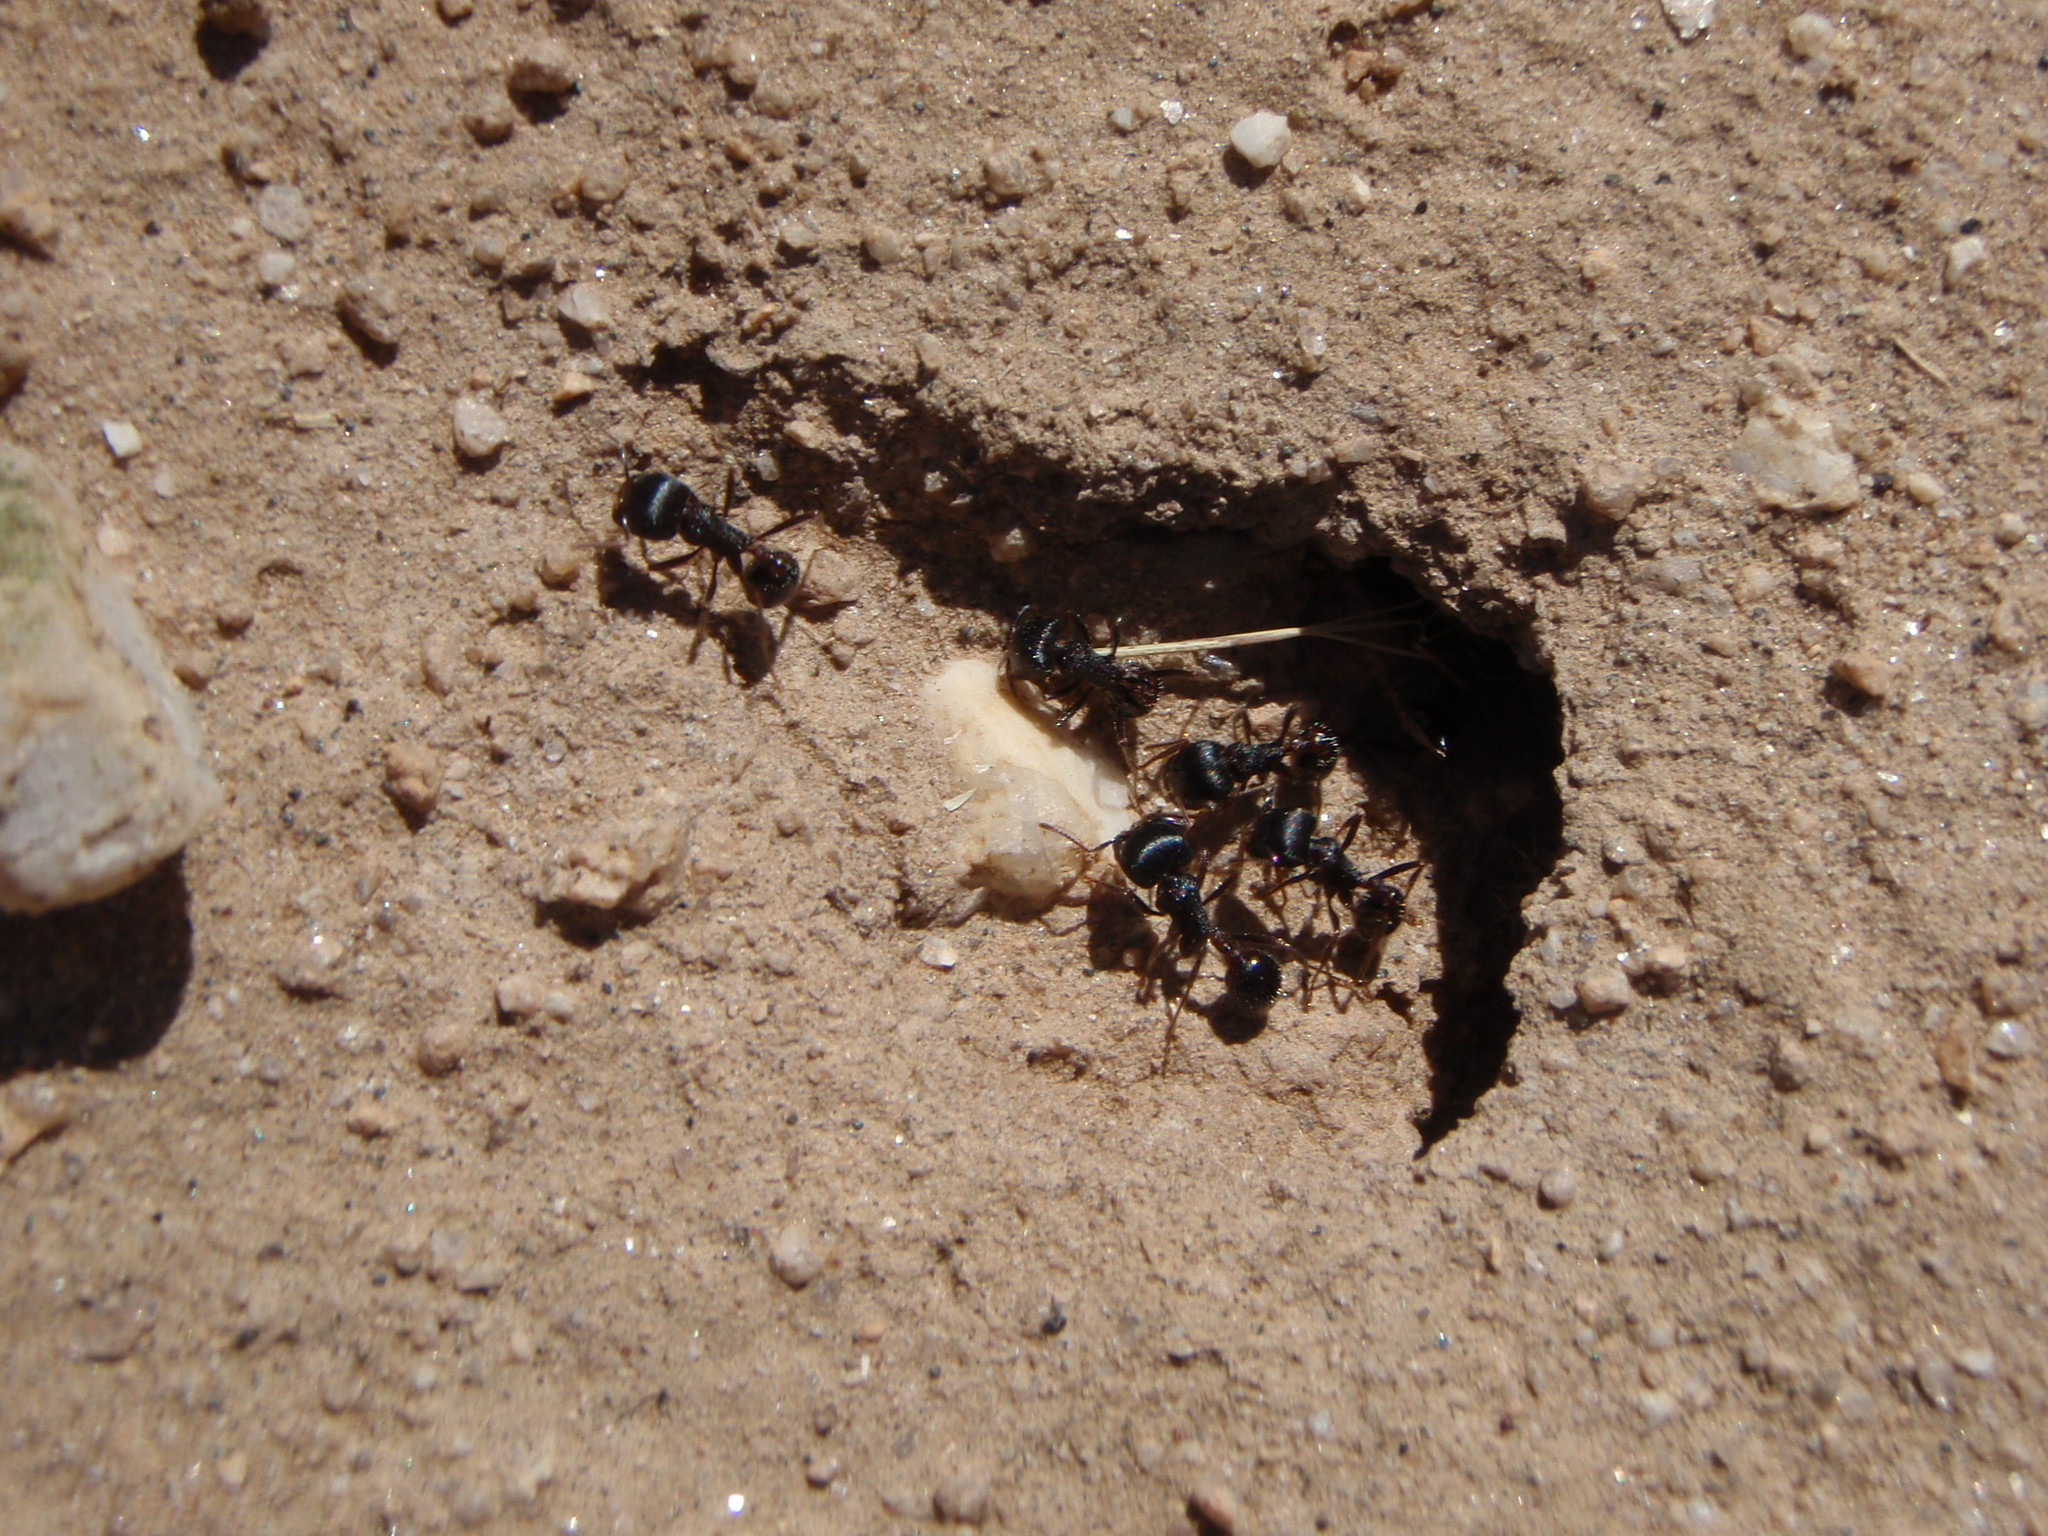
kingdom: Animalia
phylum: Arthropoda
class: Insecta
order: Hymenoptera
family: Formicidae
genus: Pogonomyrmex
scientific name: Pogonomyrmex rugosus
